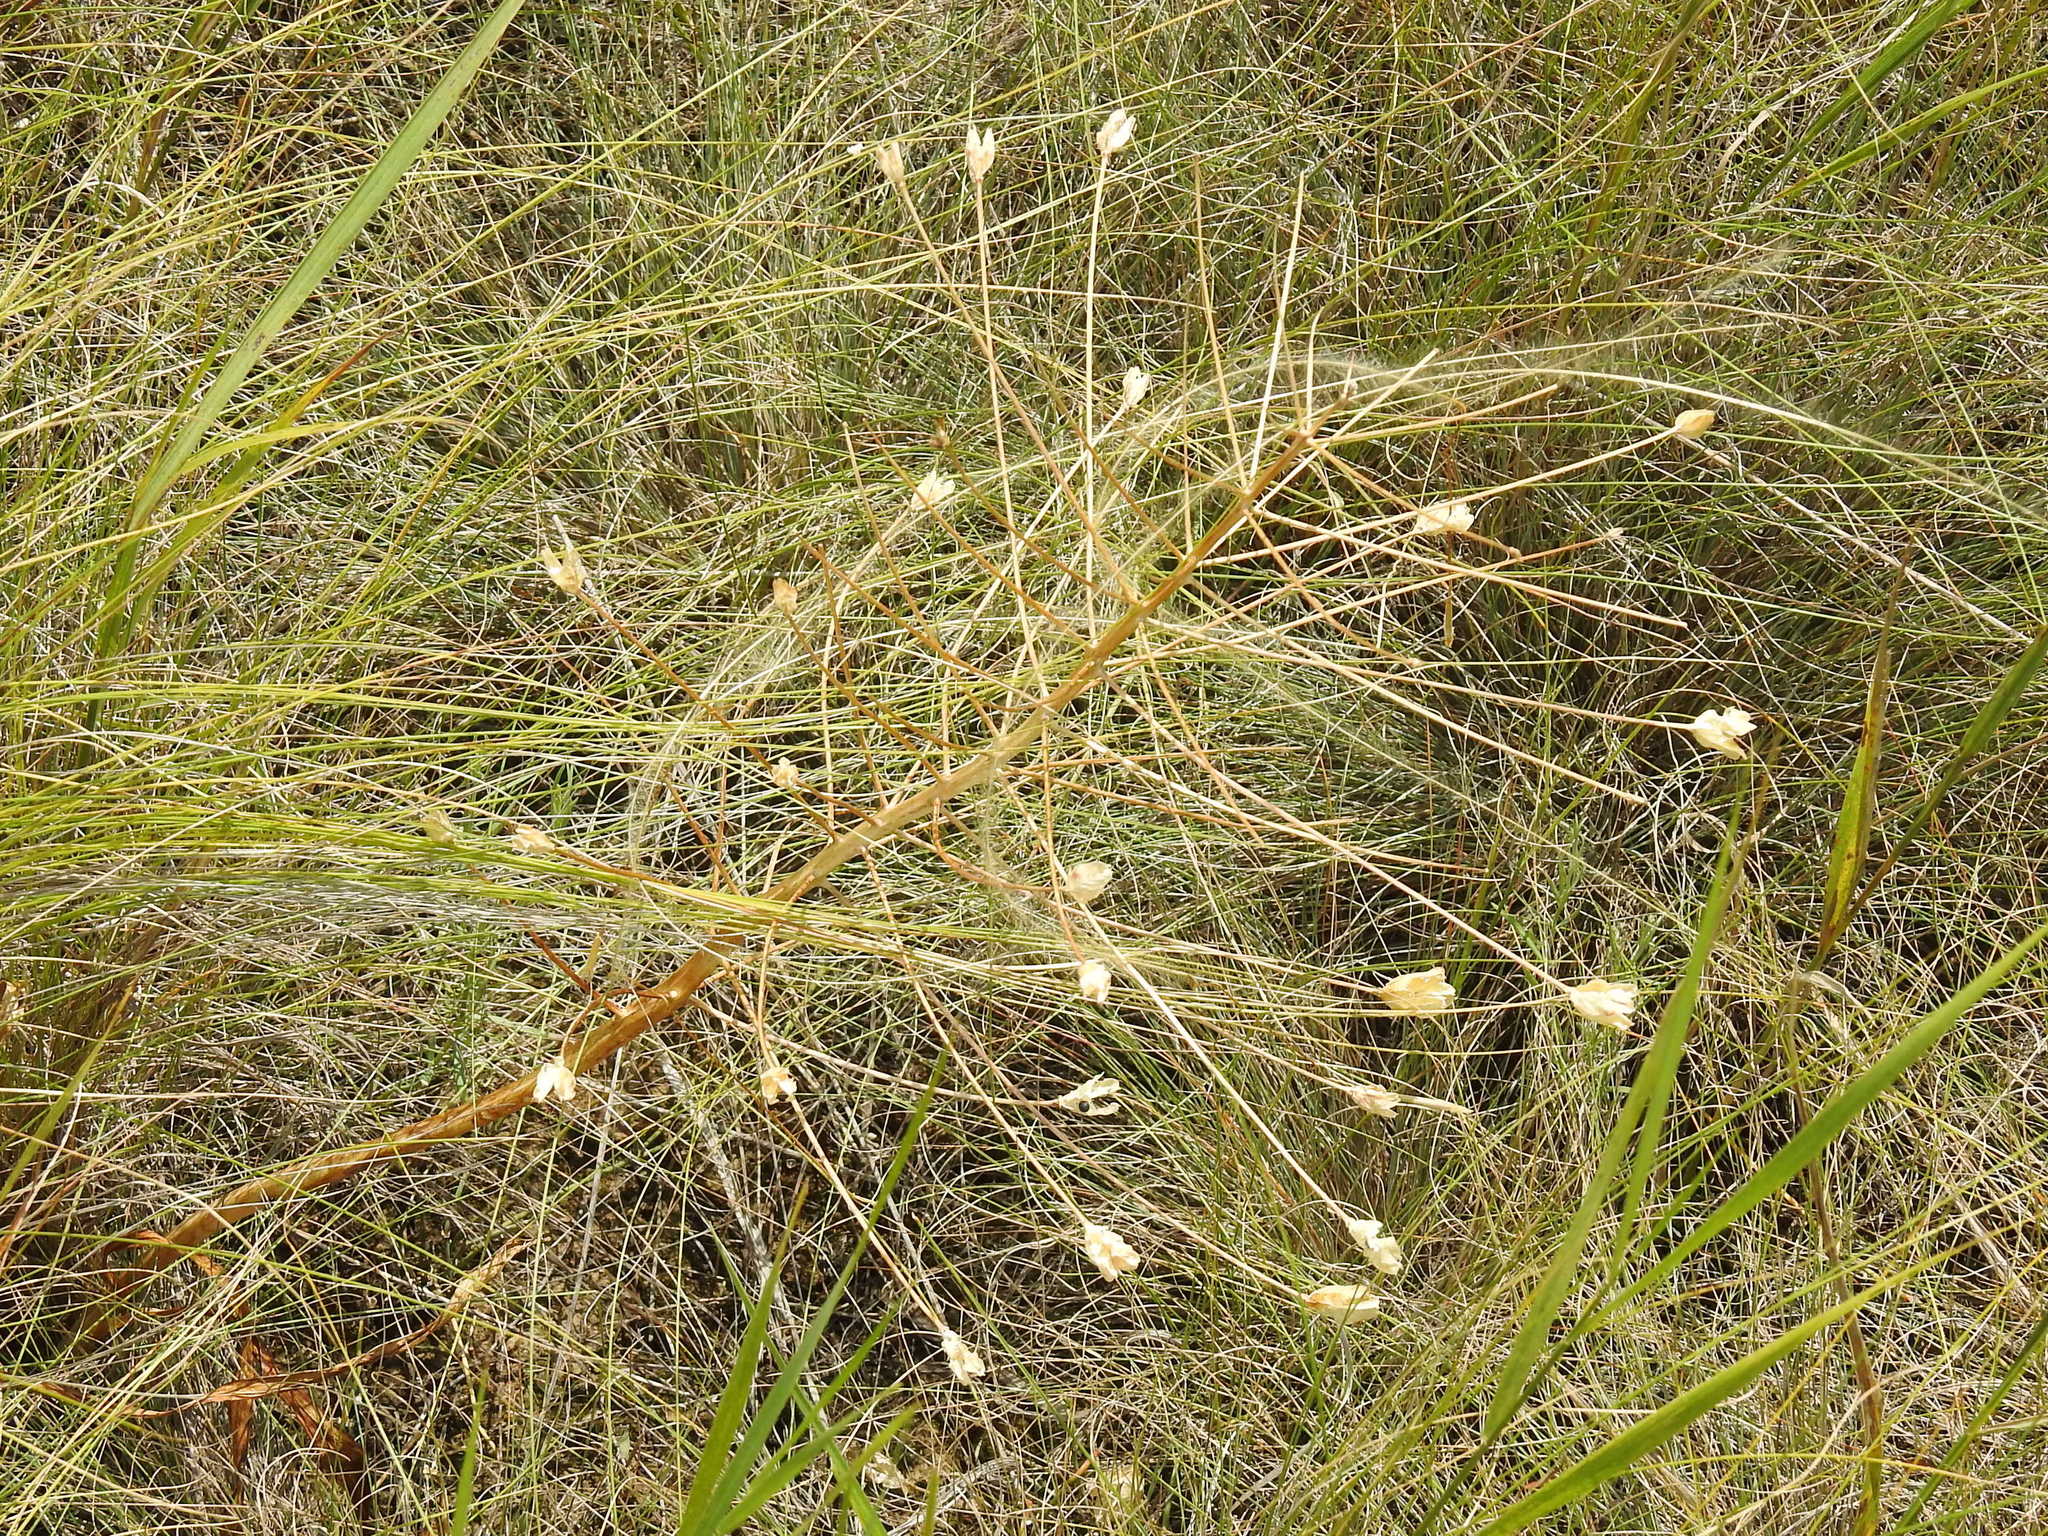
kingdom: Plantae
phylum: Tracheophyta
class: Liliopsida
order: Asparagales
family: Asparagaceae
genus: Bellevalia
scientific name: Bellevalia speciosa
